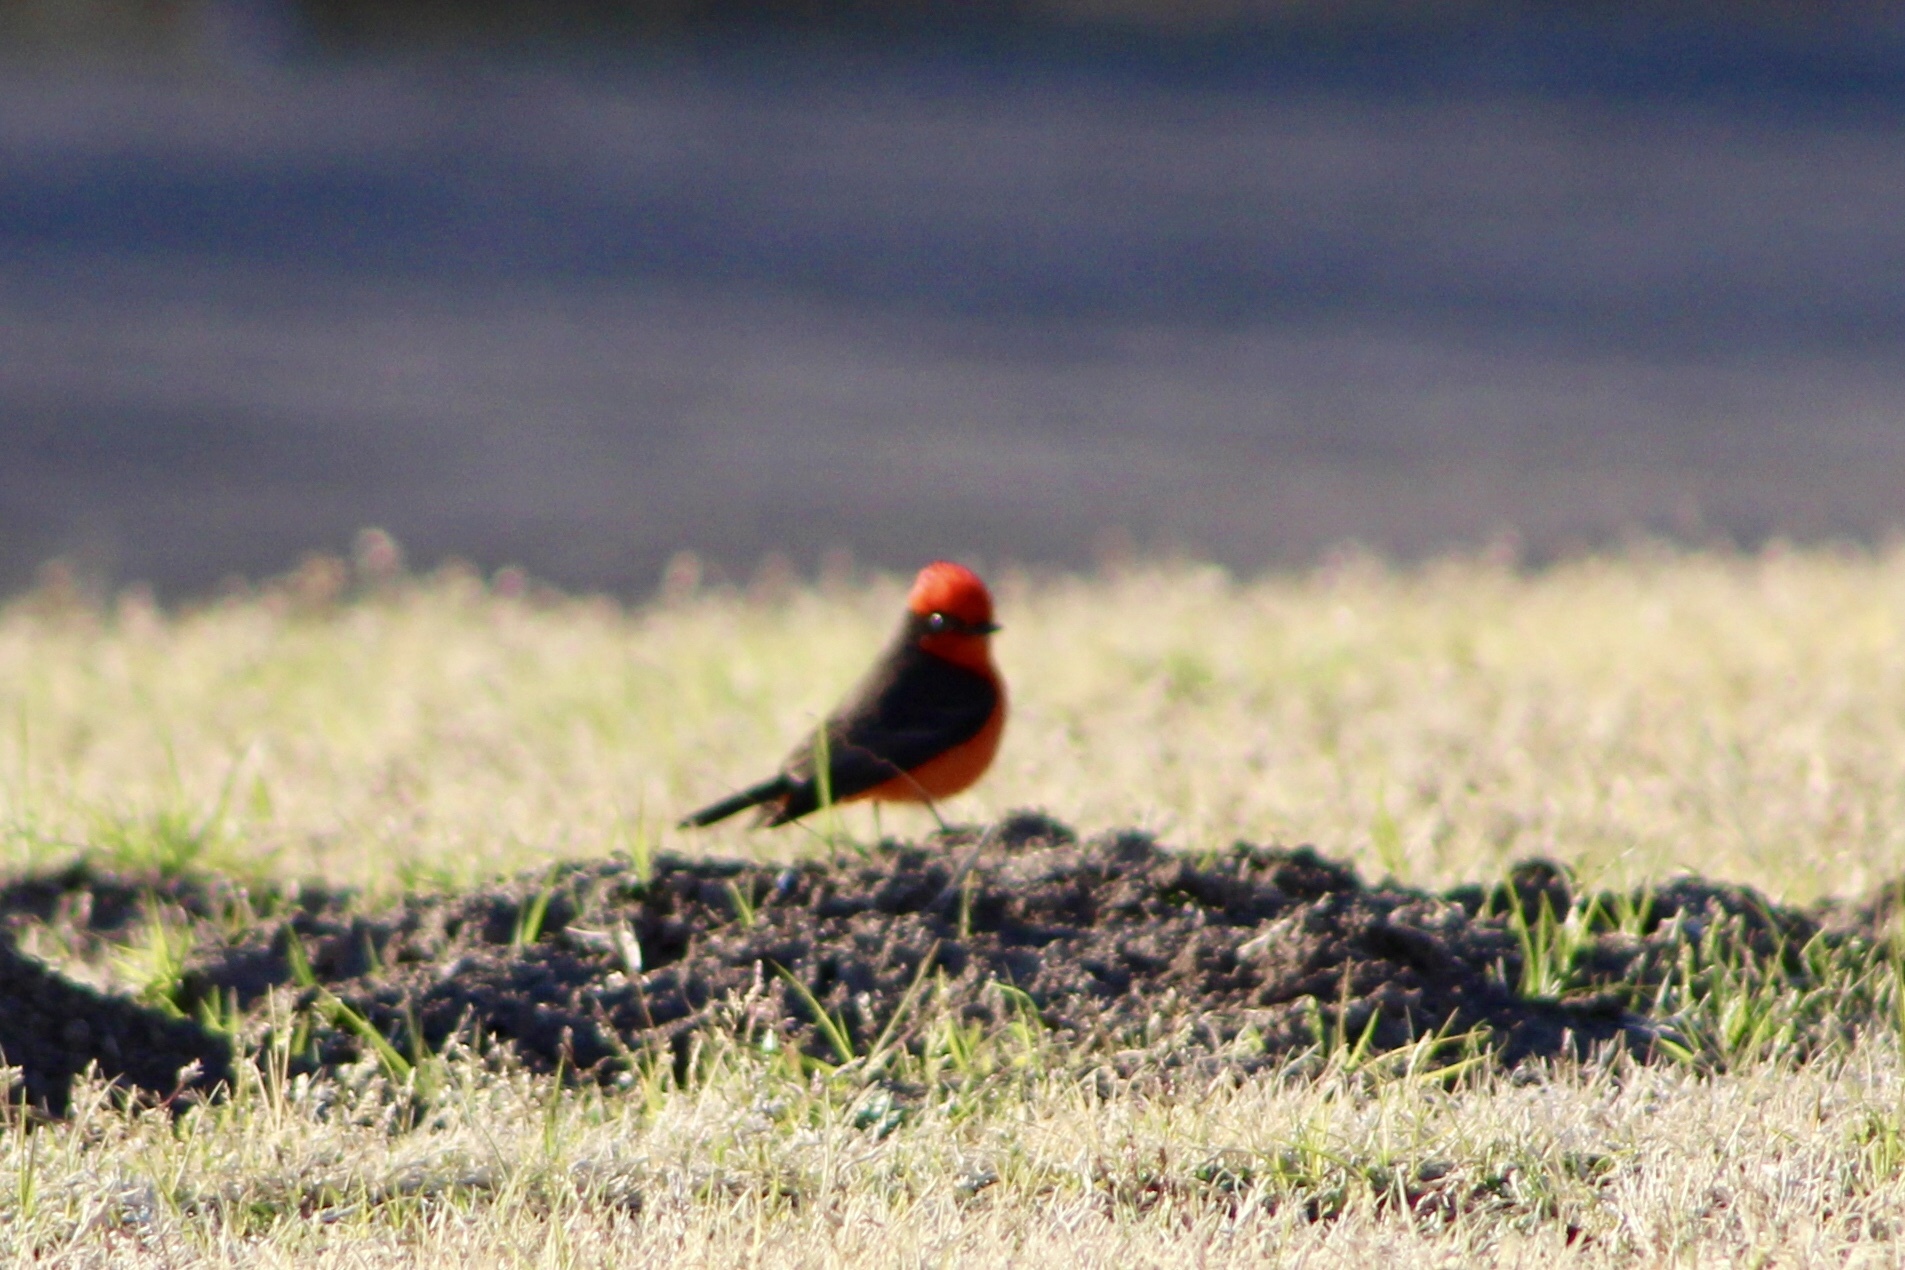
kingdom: Animalia
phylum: Chordata
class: Aves
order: Passeriformes
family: Tyrannidae
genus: Pyrocephalus
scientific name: Pyrocephalus rubinus
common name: Vermilion flycatcher
